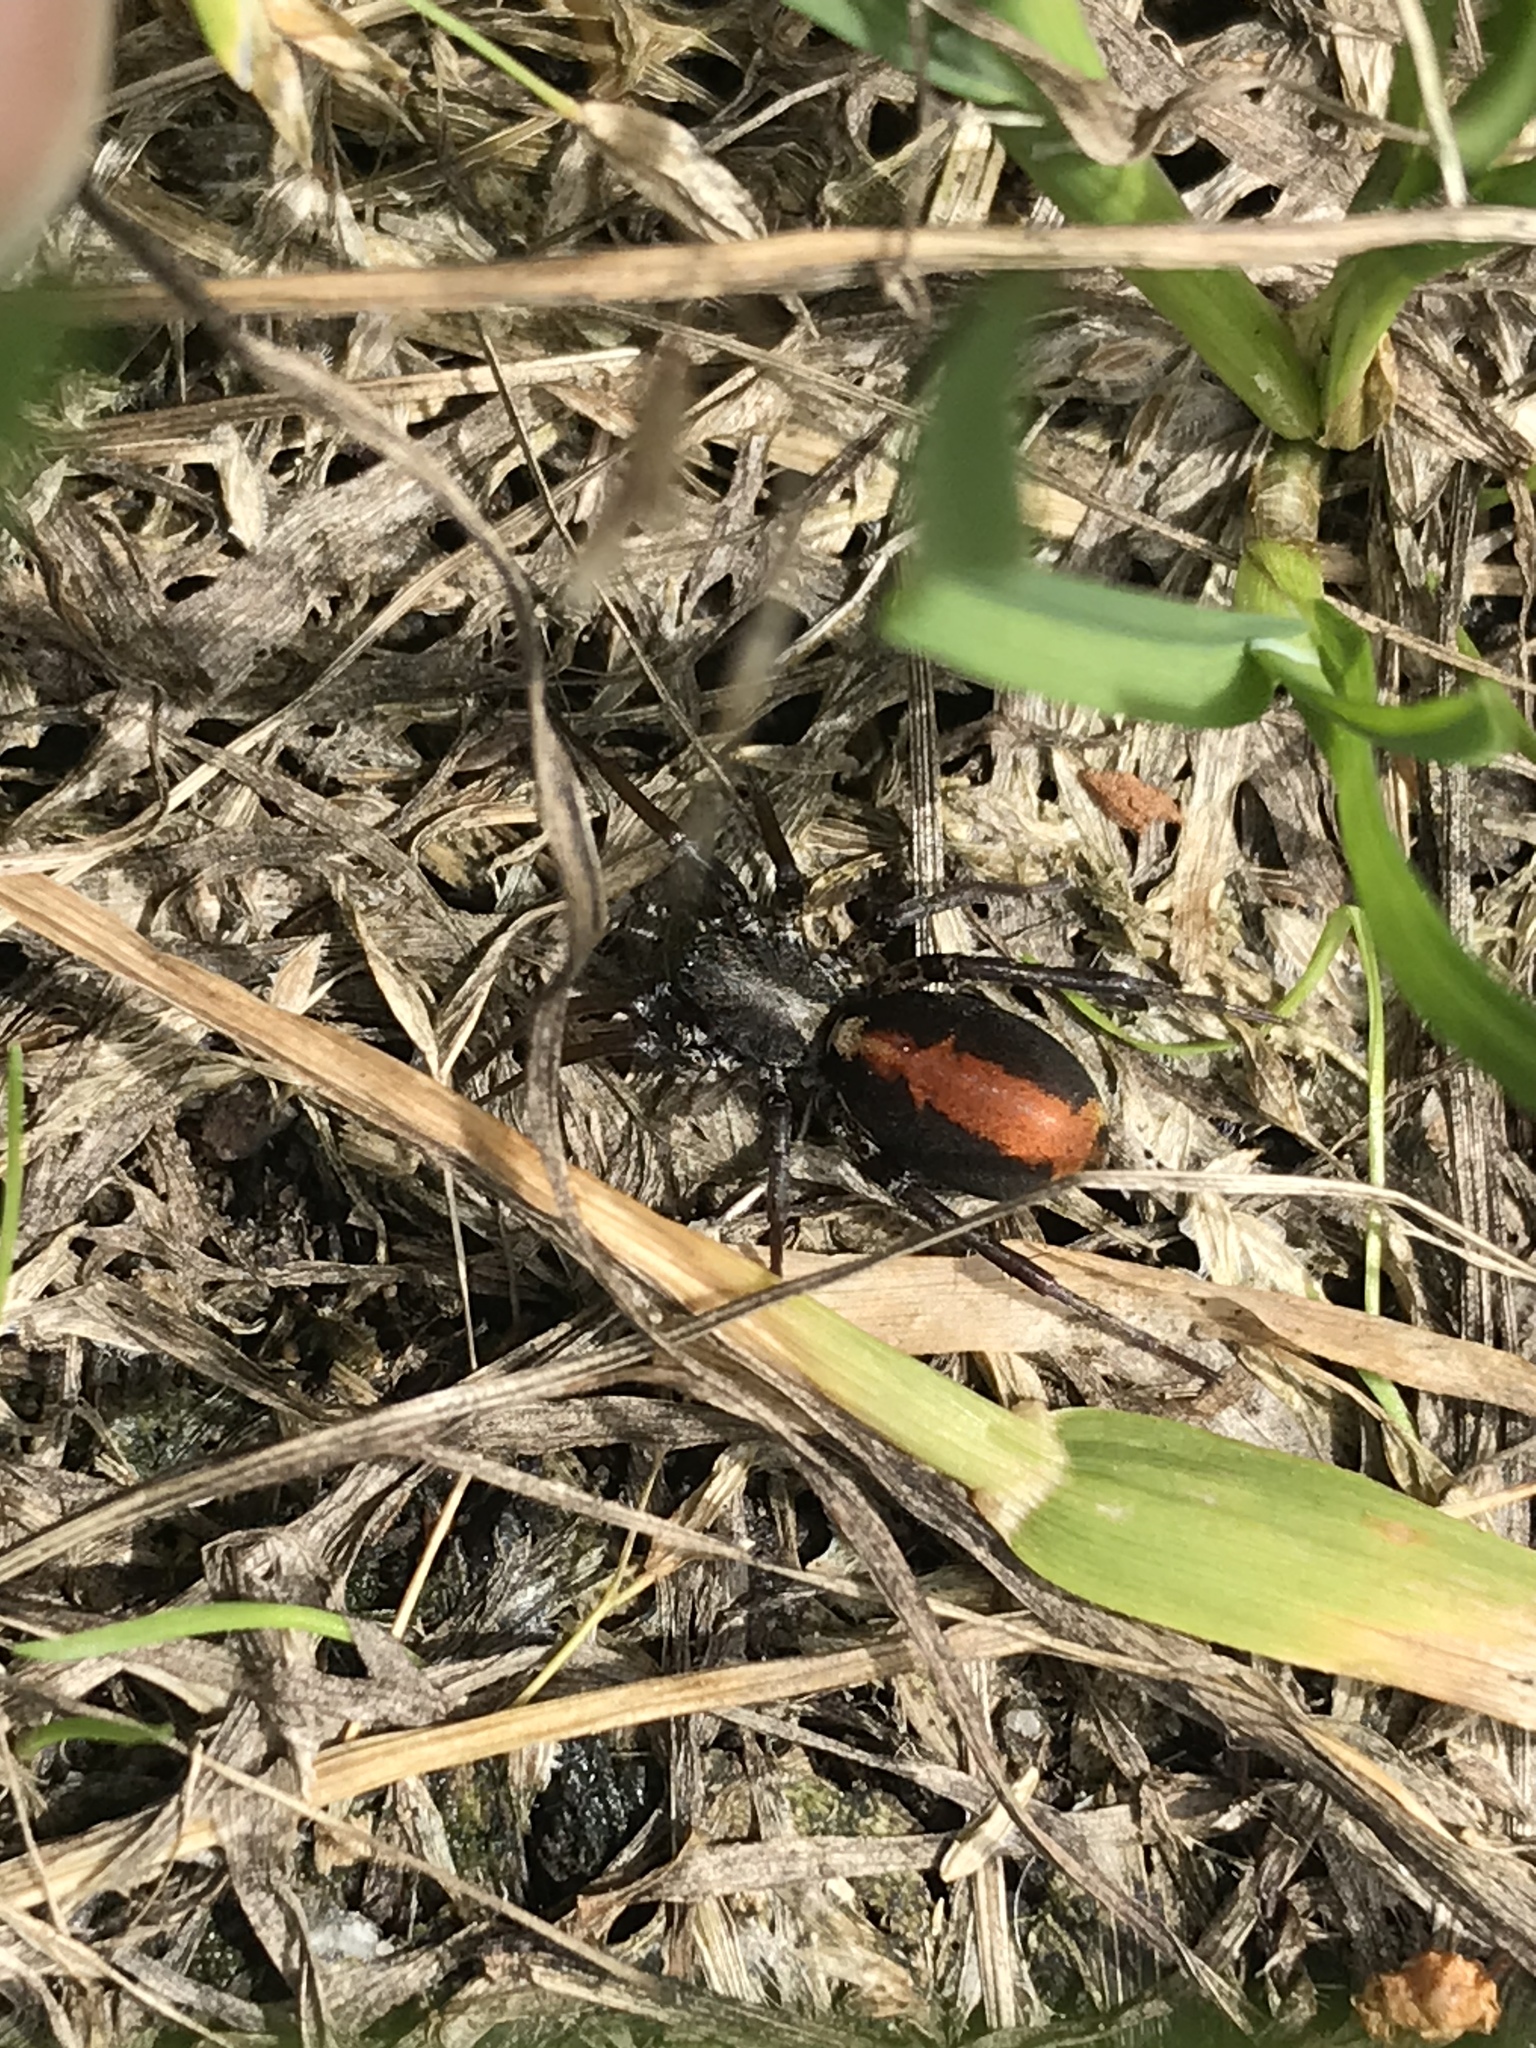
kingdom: Animalia
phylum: Arthropoda
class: Arachnida
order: Araneae
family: Corinnidae
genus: Castianeira
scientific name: Castianeira thalia
